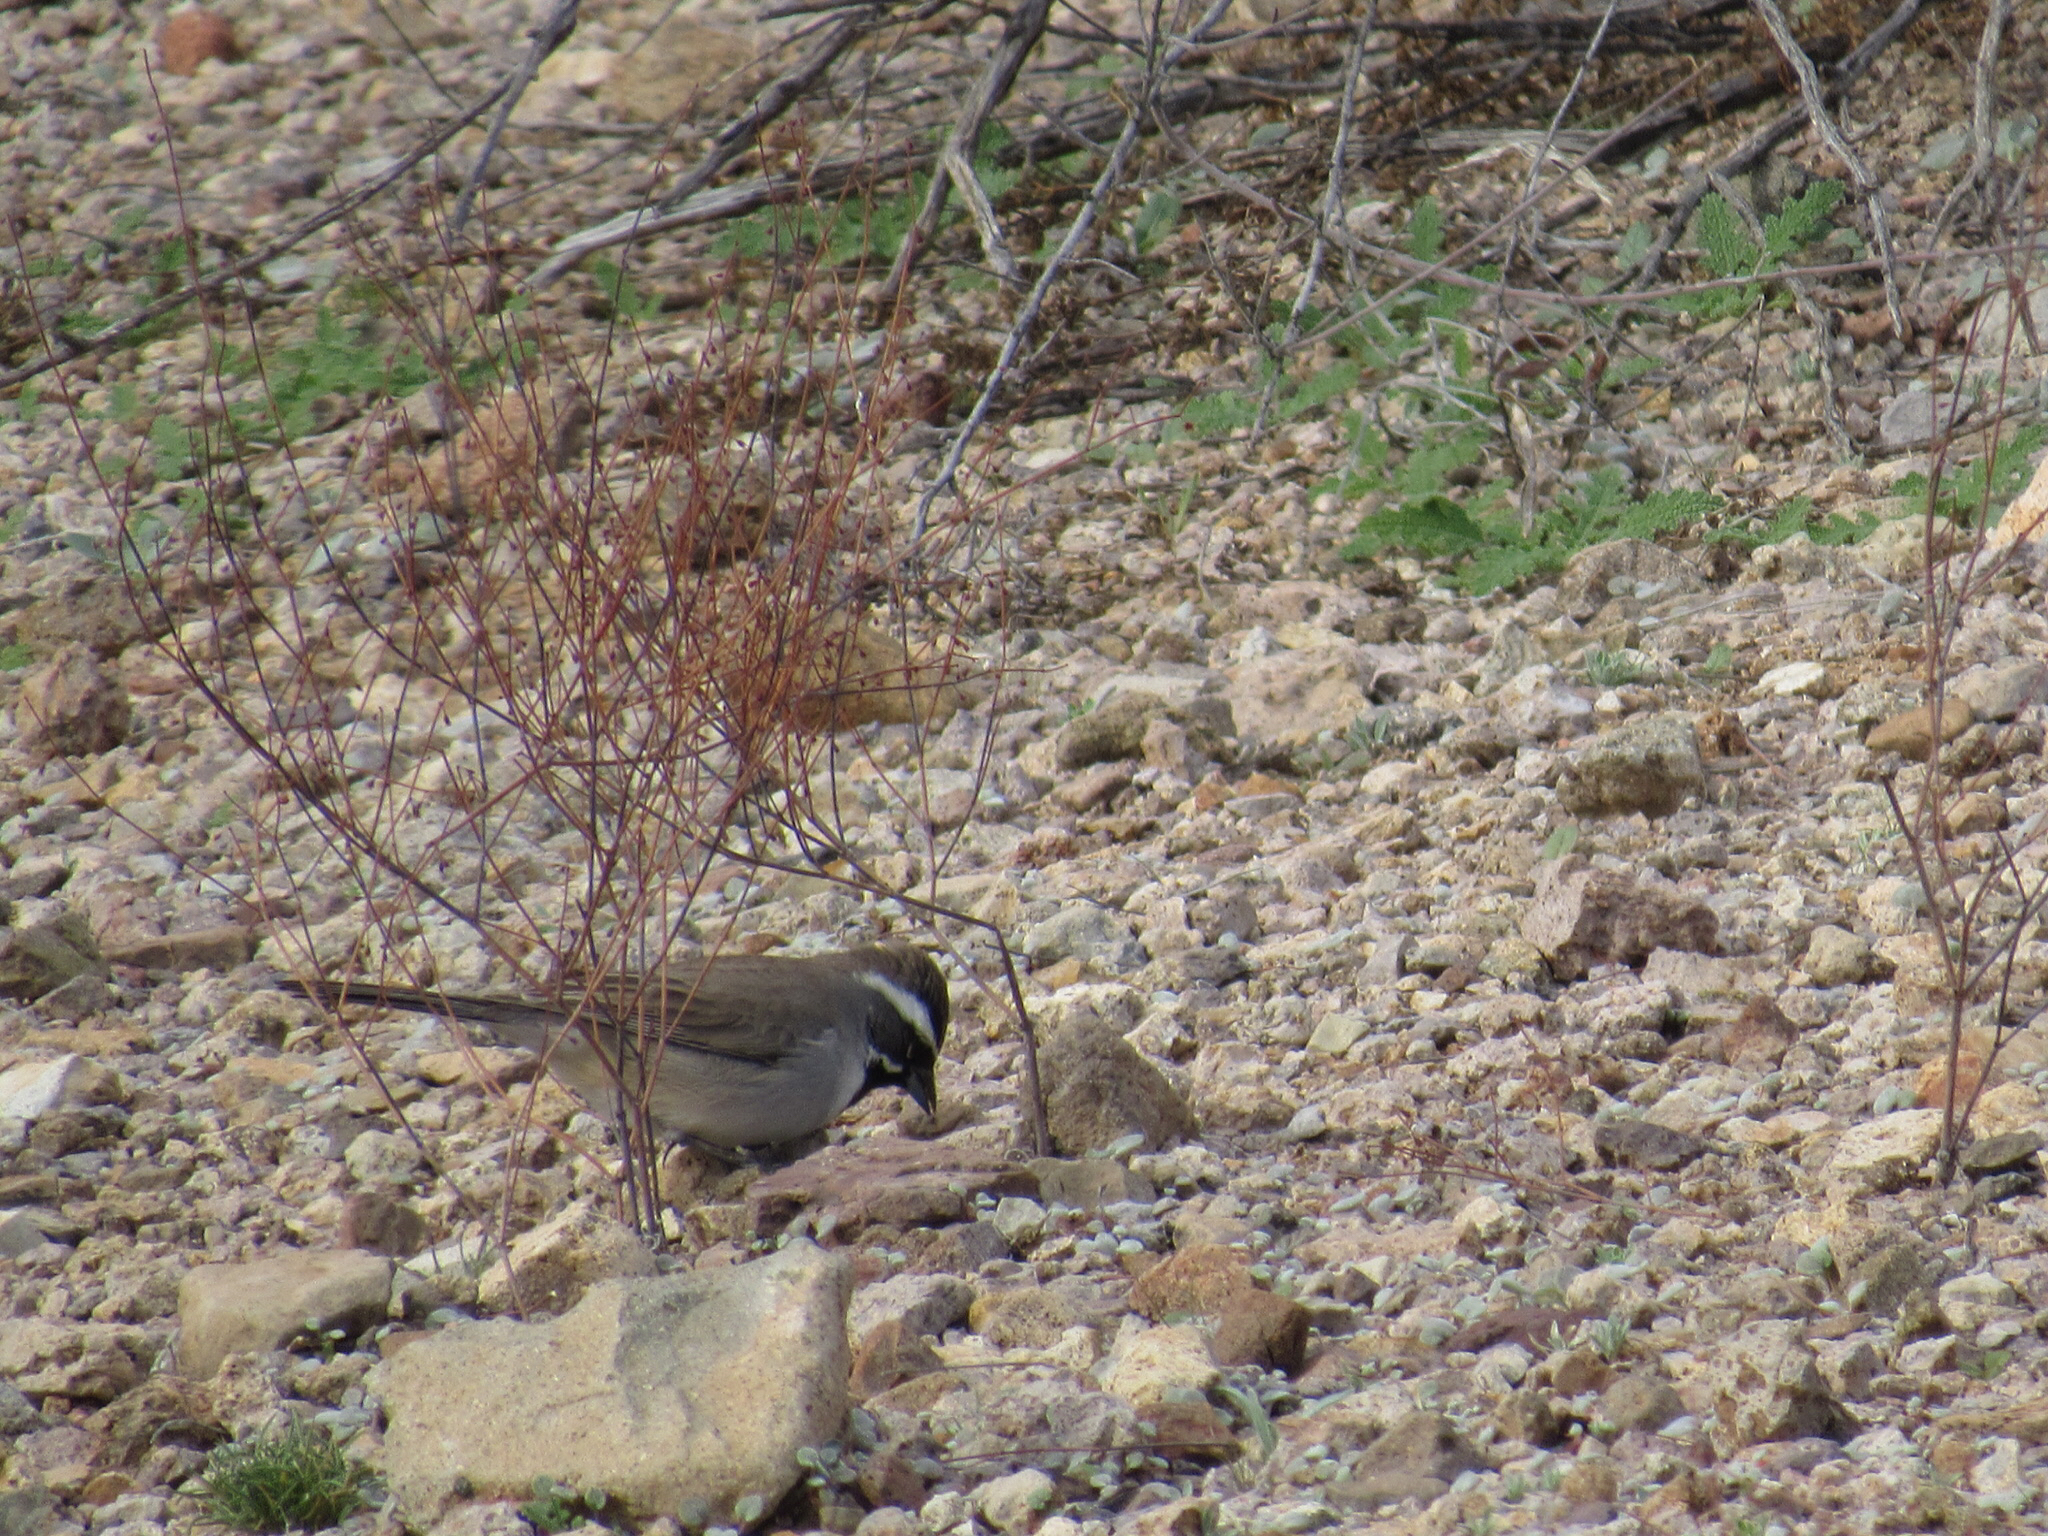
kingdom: Animalia
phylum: Chordata
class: Aves
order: Passeriformes
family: Passerellidae
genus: Amphispiza
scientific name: Amphispiza bilineata
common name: Black-throated sparrow
